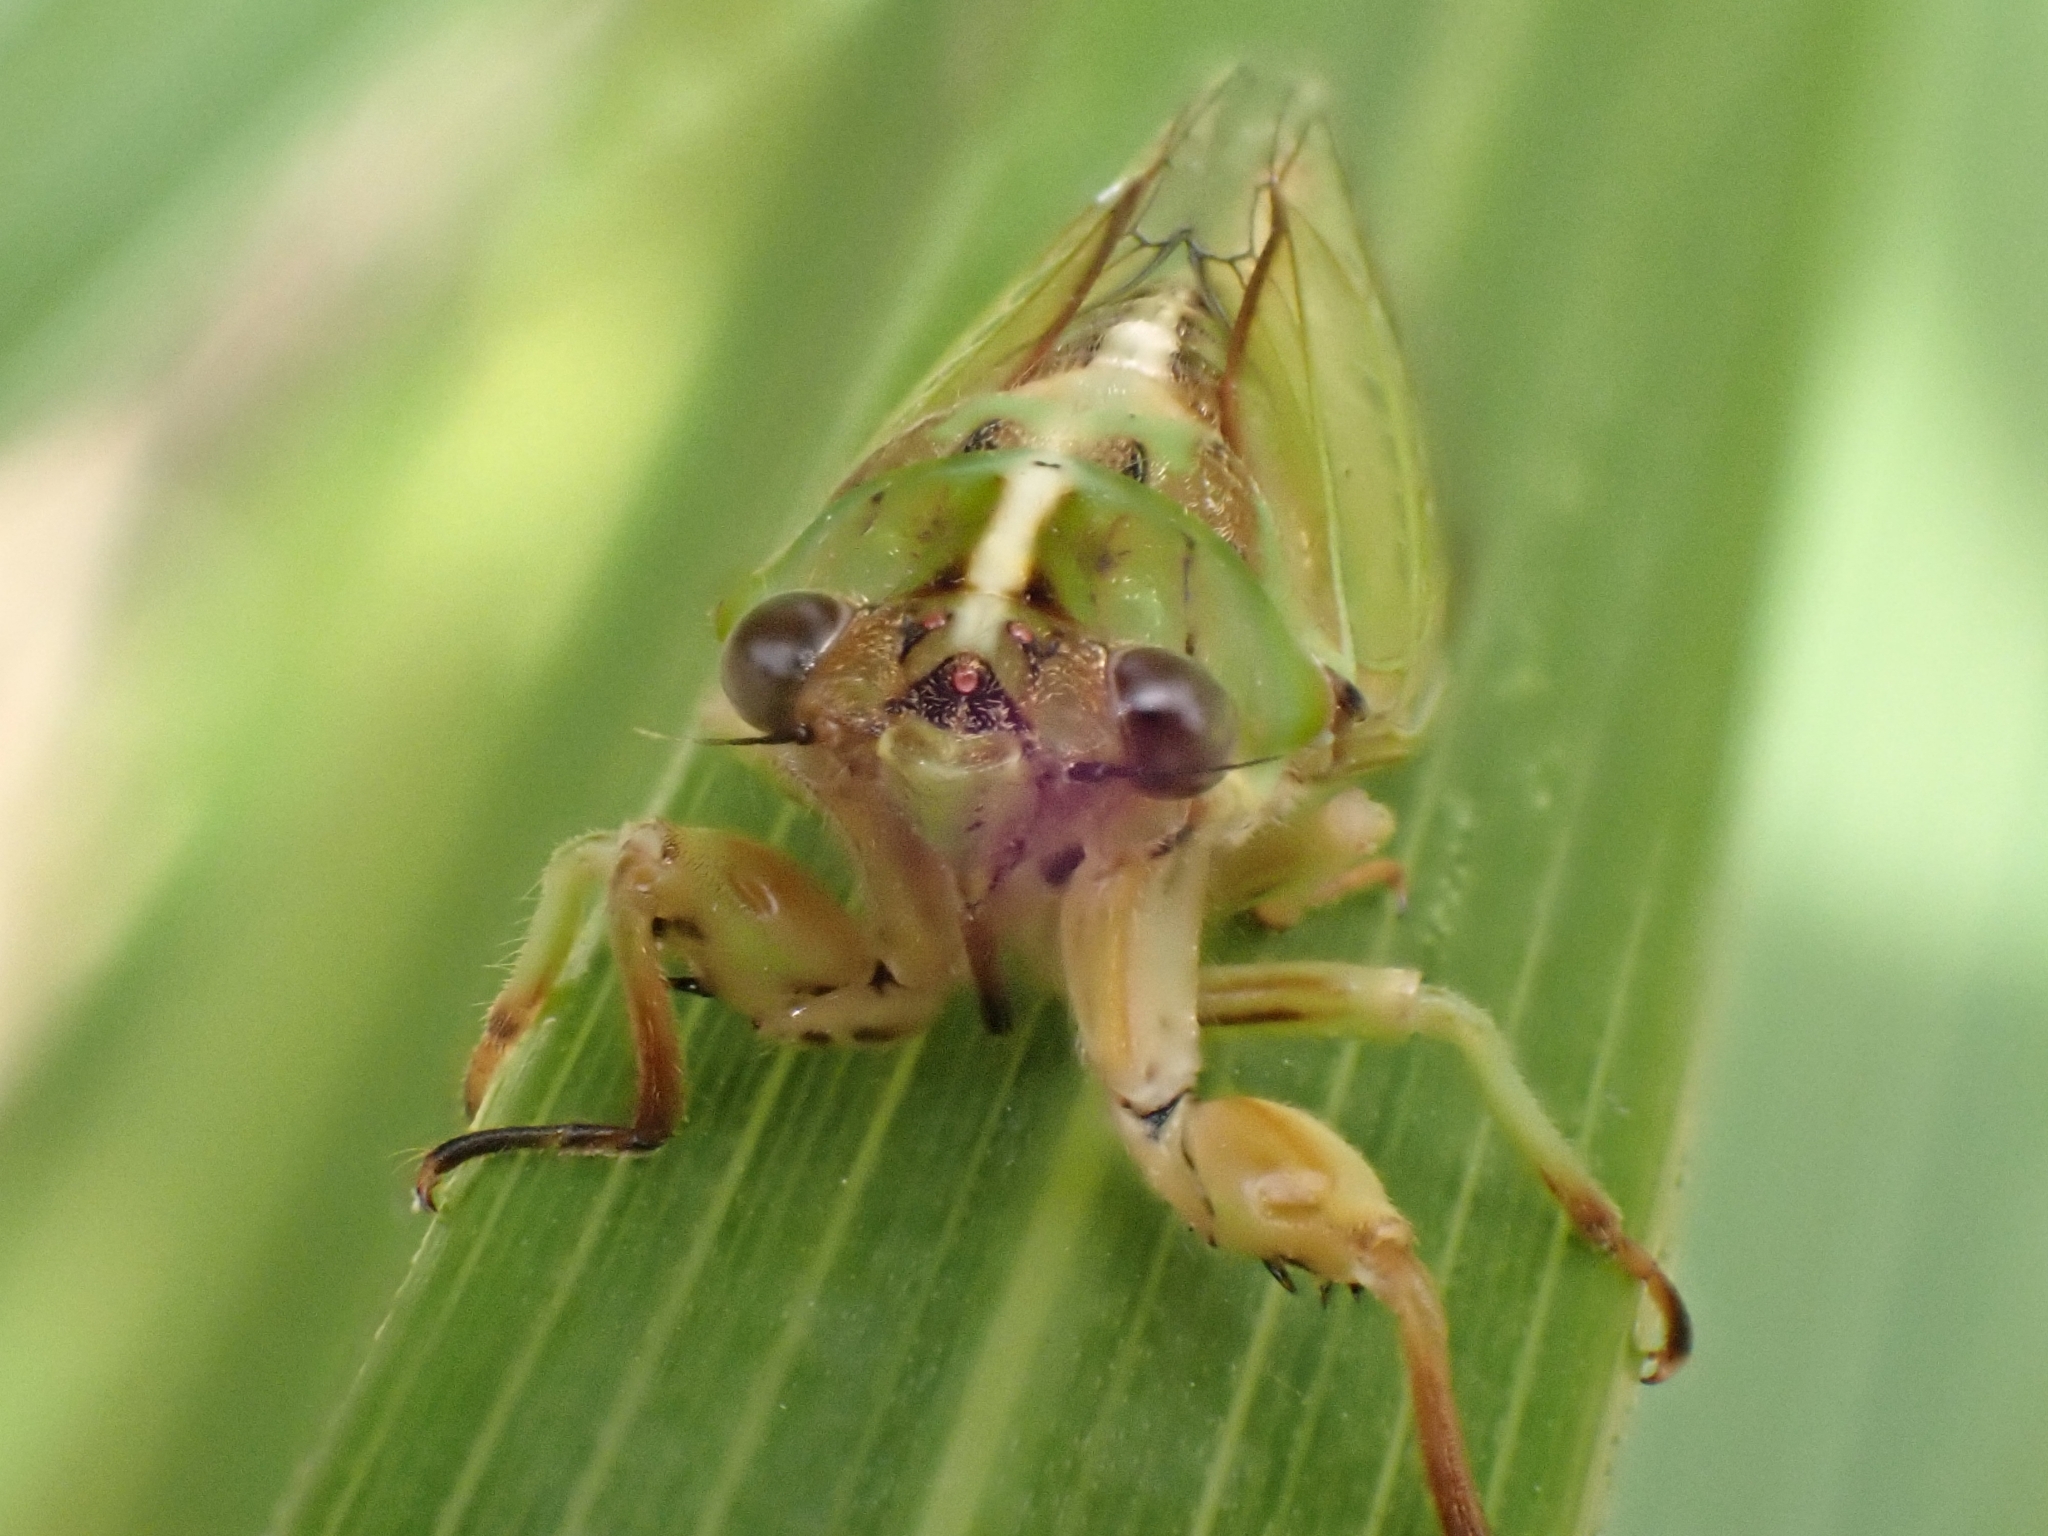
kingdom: Animalia
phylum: Arthropoda
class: Insecta
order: Hemiptera
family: Cicadidae
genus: Kikihia
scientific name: Kikihia muta
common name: Variable cicada
